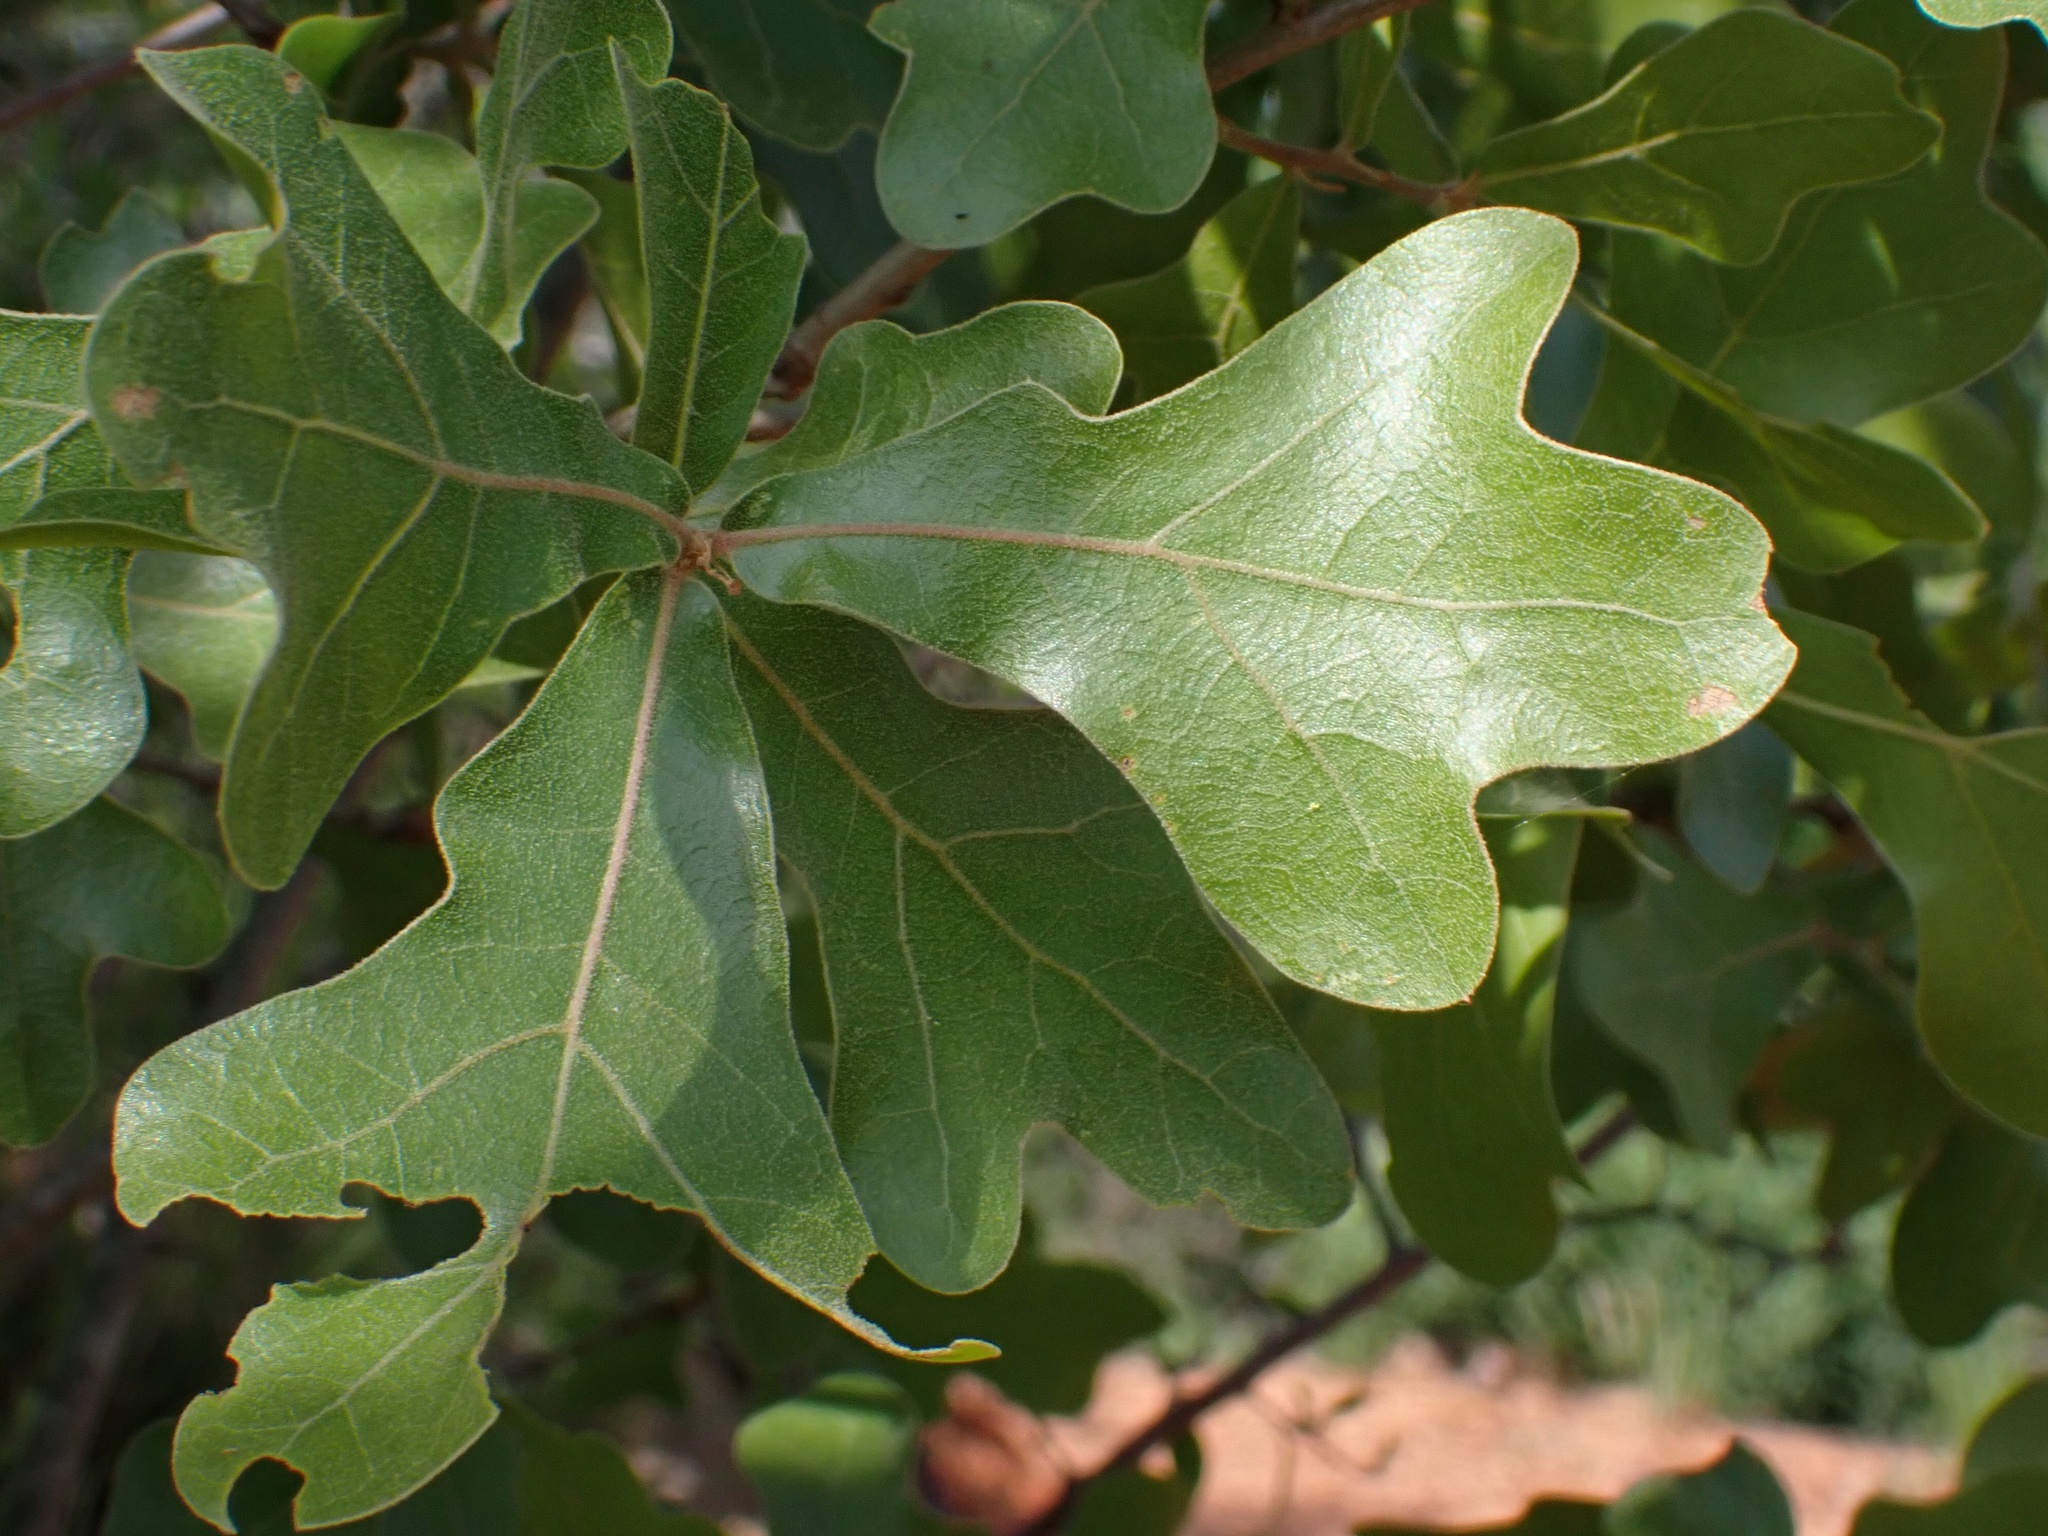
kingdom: Plantae
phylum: Tracheophyta
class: Magnoliopsida
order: Fagales
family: Fagaceae
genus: Quercus
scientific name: Quercus marilandica
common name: Blackjack oak
